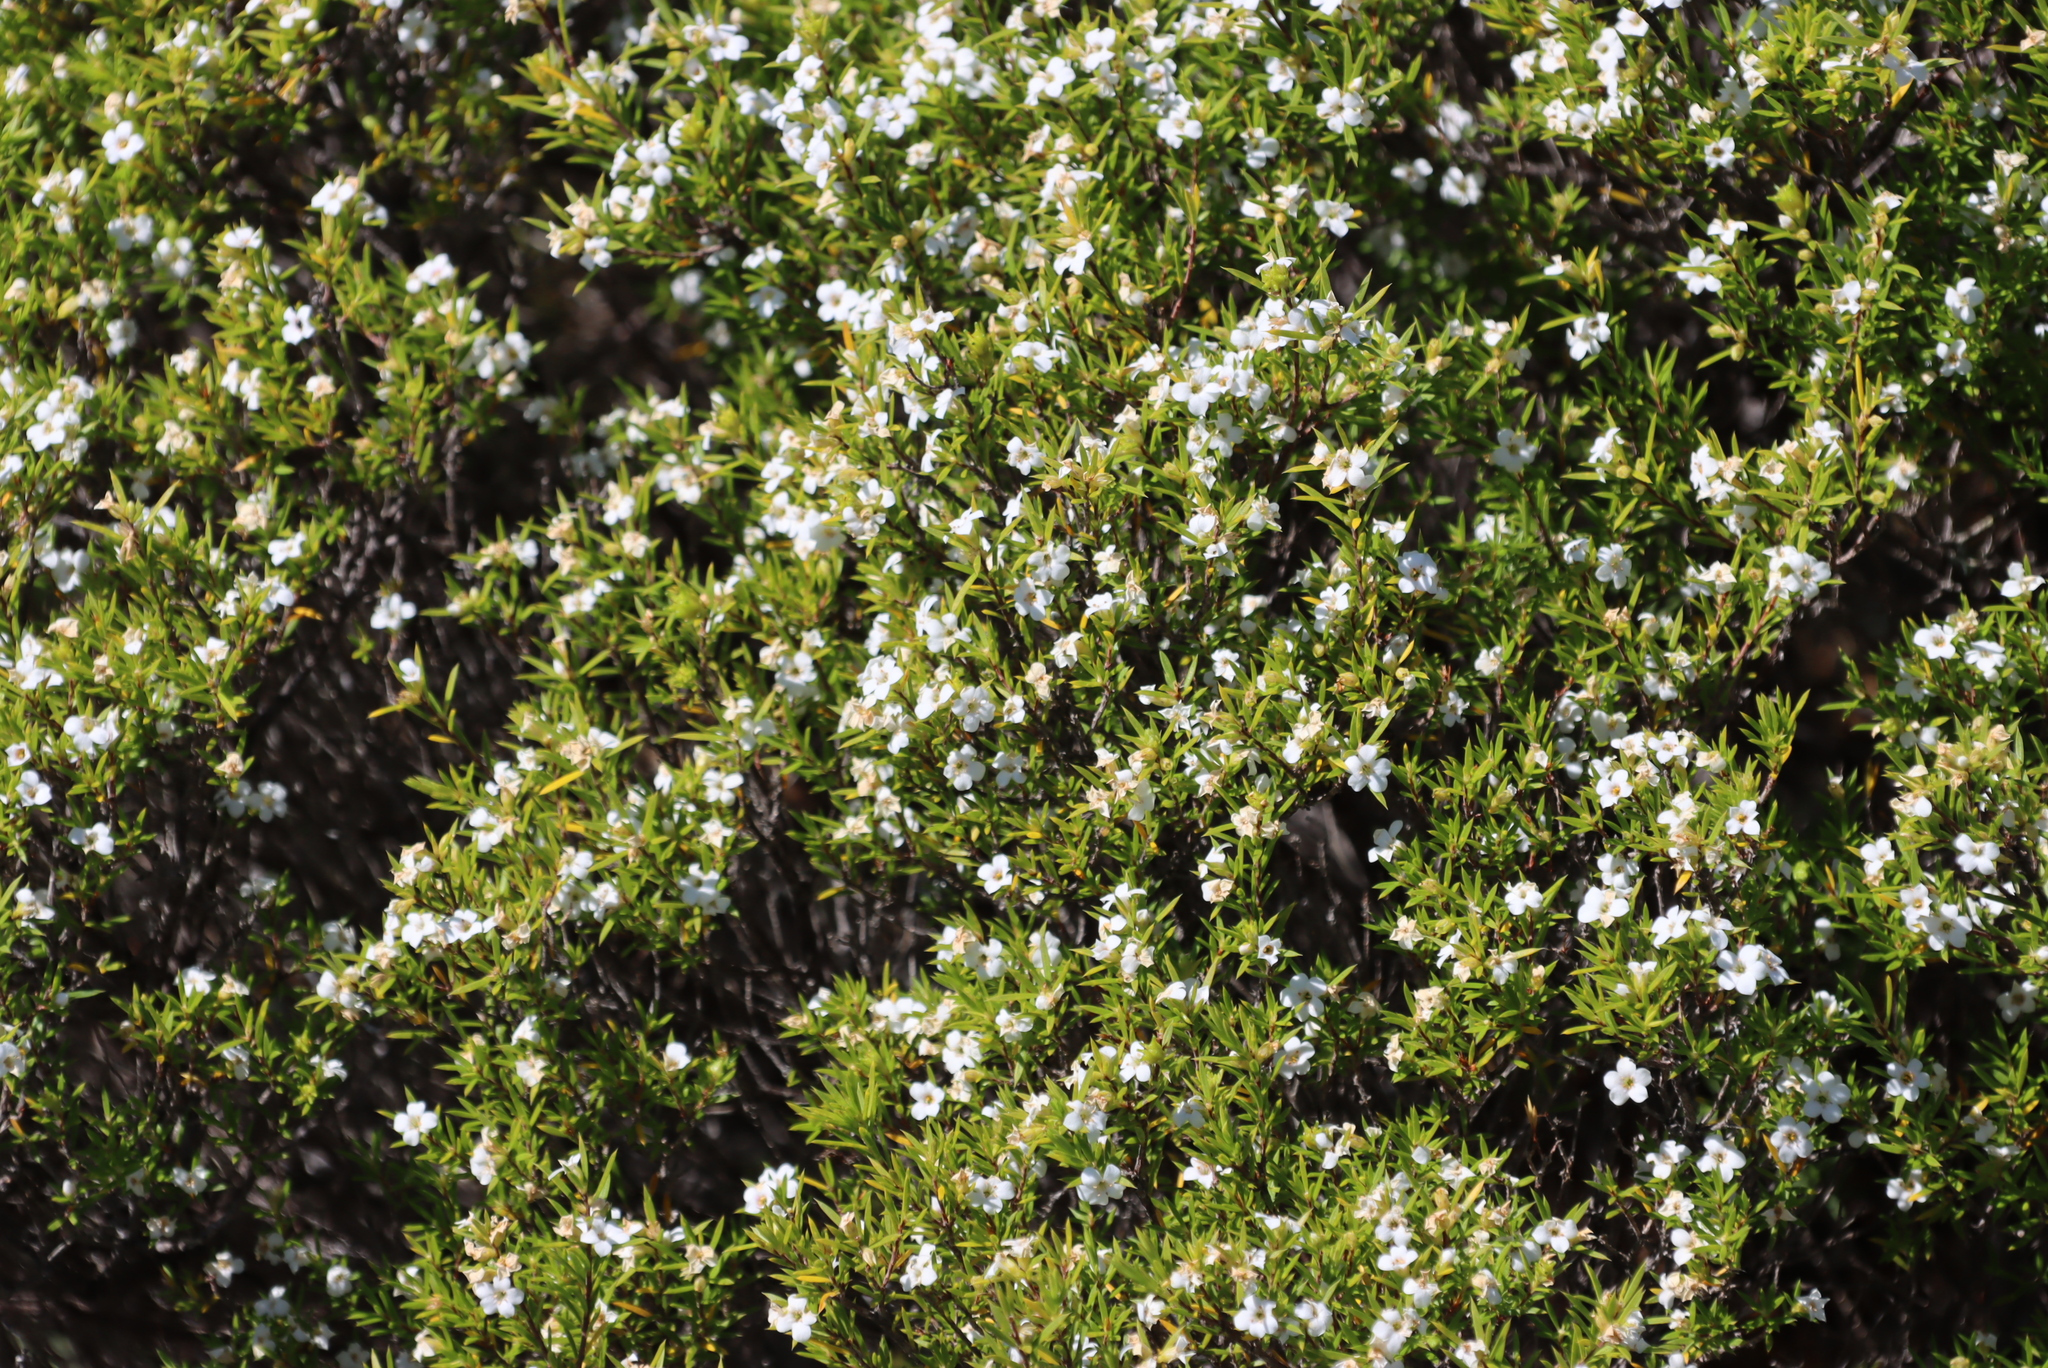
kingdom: Plantae
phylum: Tracheophyta
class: Magnoliopsida
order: Sapindales
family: Rutaceae
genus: Coleonema
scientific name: Coleonema album
